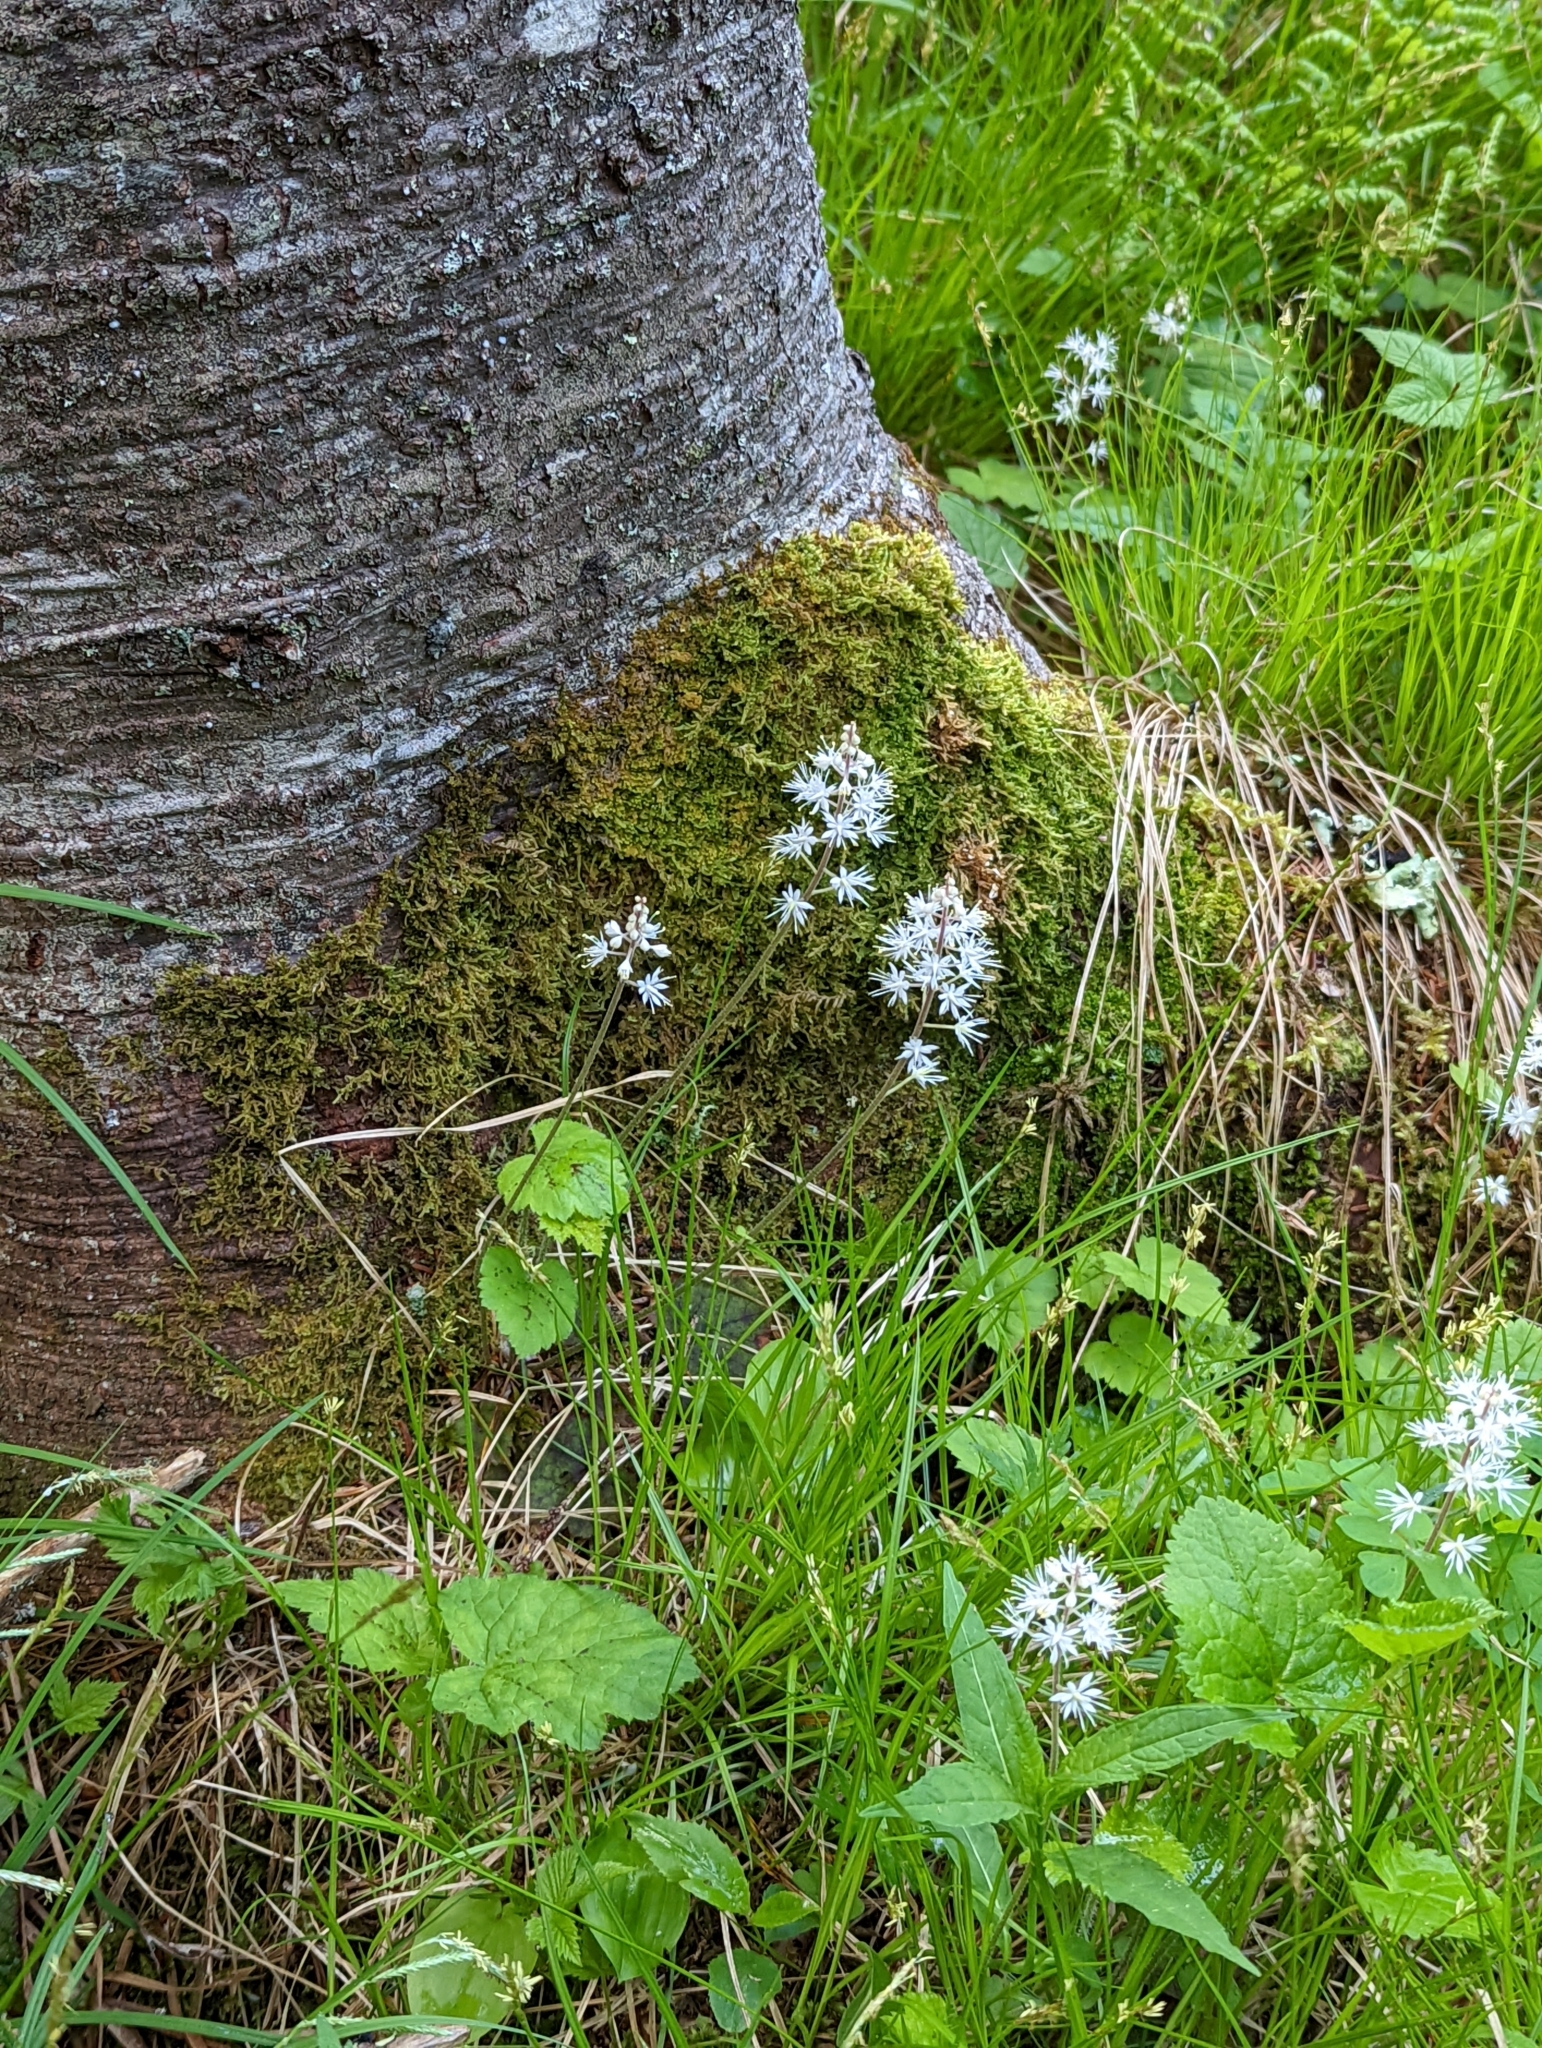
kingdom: Plantae
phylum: Tracheophyta
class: Magnoliopsida
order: Saxifragales
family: Saxifragaceae
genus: Tiarella
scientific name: Tiarella stolonifera
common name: Stoloniferous foamflower
